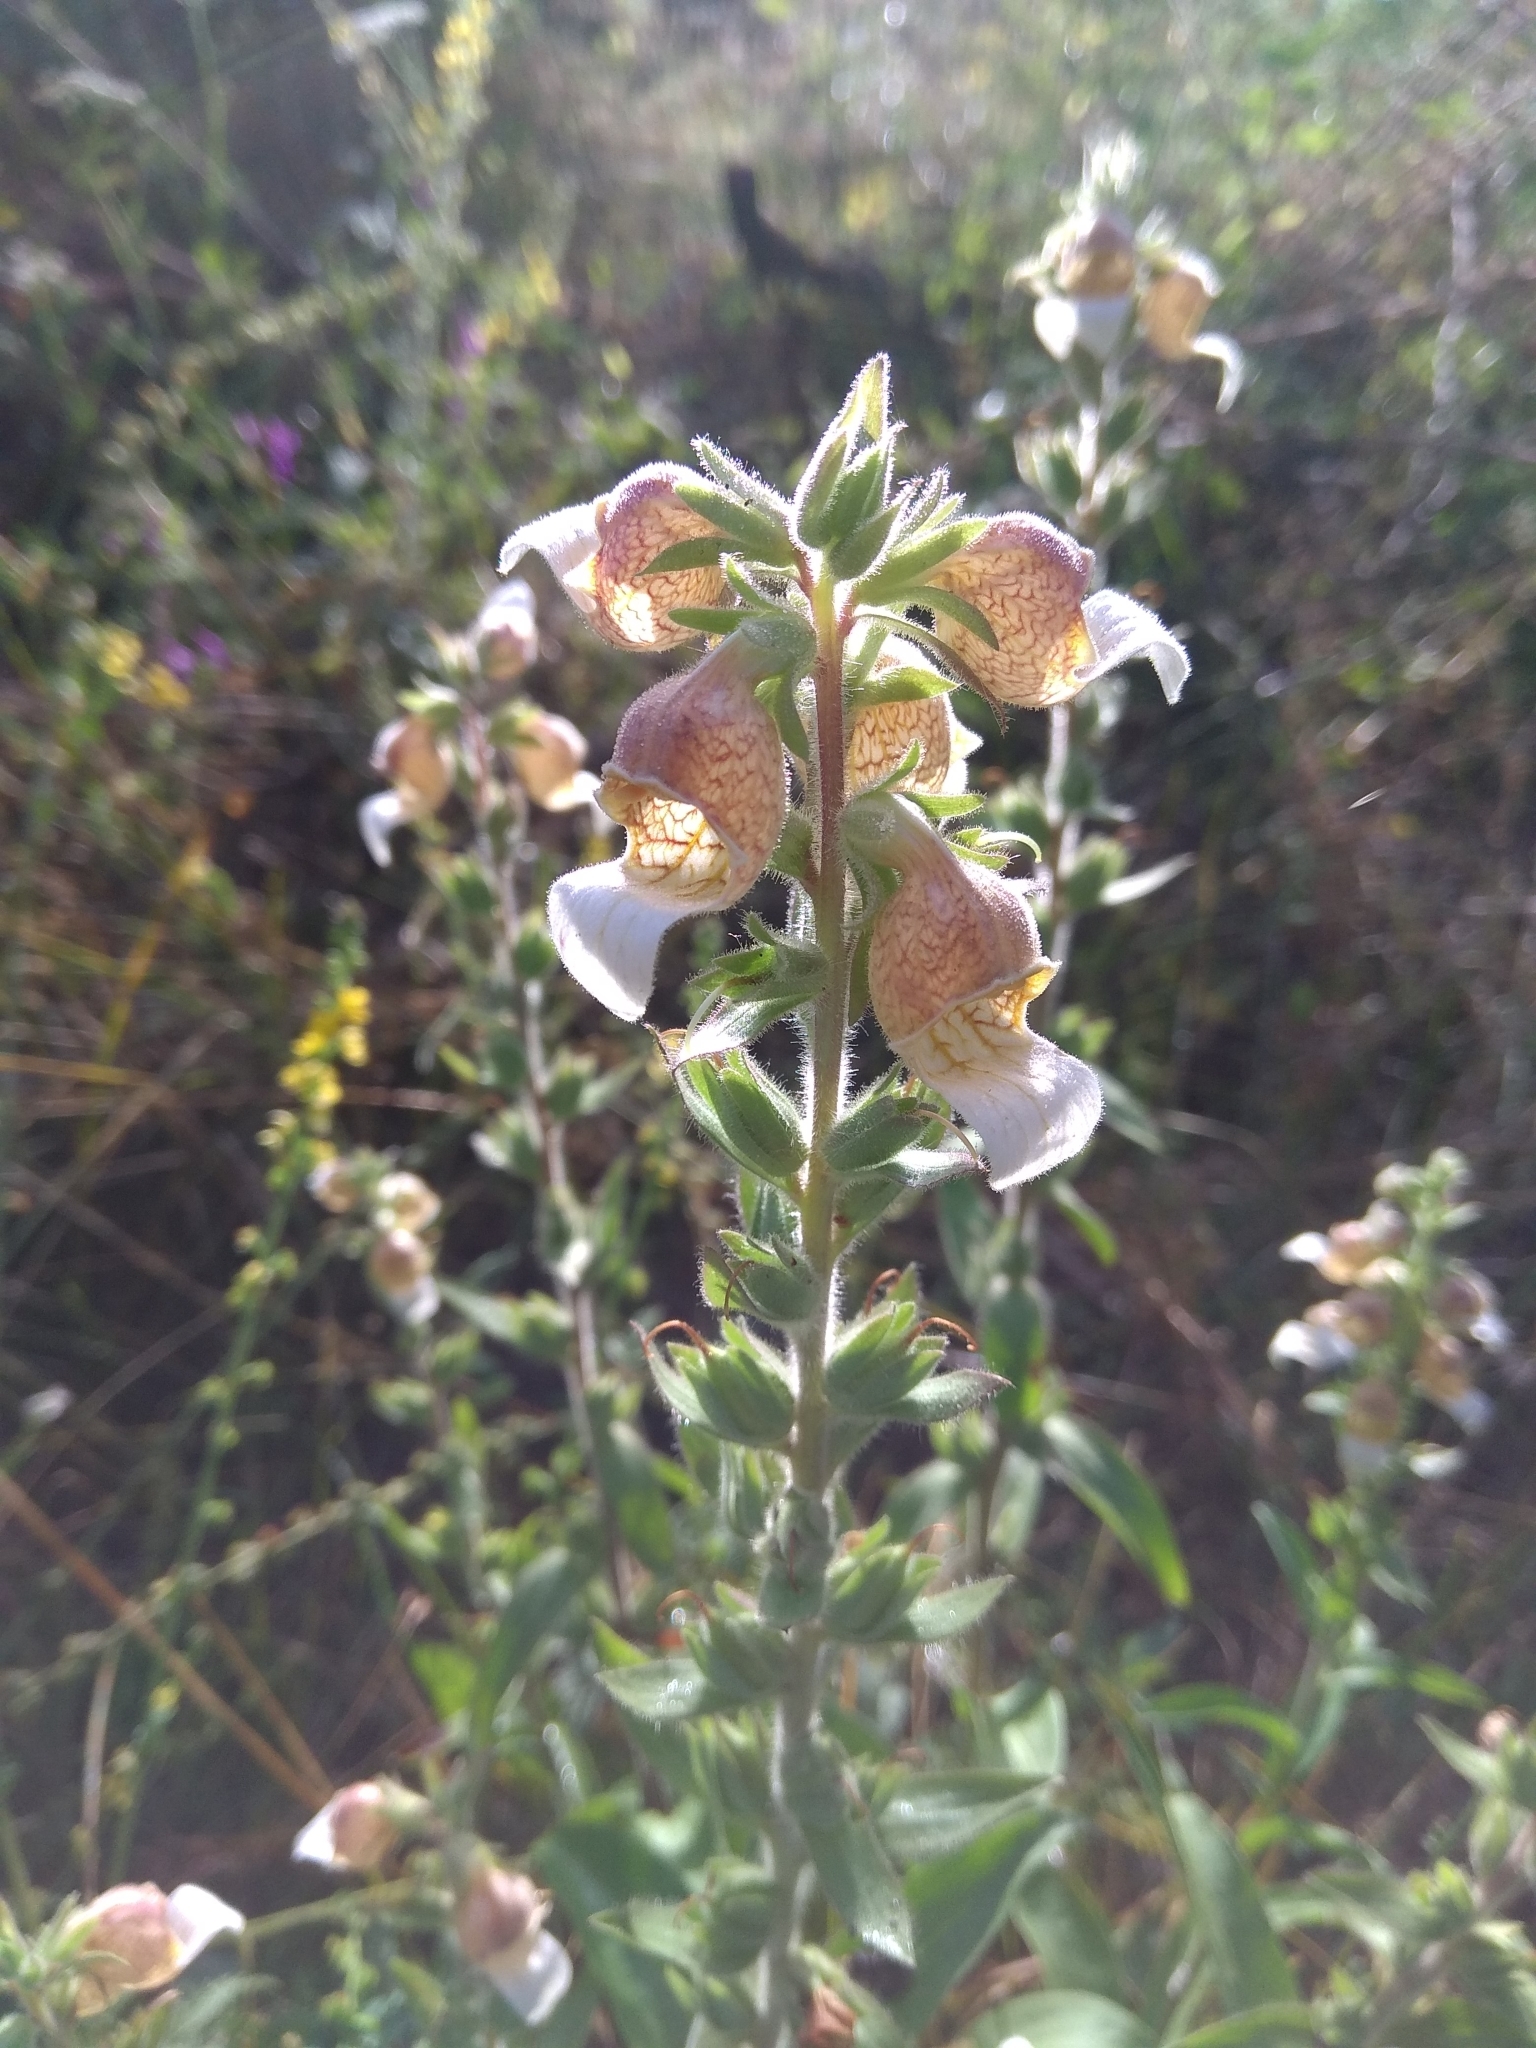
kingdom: Plantae
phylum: Tracheophyta
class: Magnoliopsida
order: Lamiales
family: Plantaginaceae
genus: Digitalis
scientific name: Digitalis lanata
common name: Grecian foxglove
